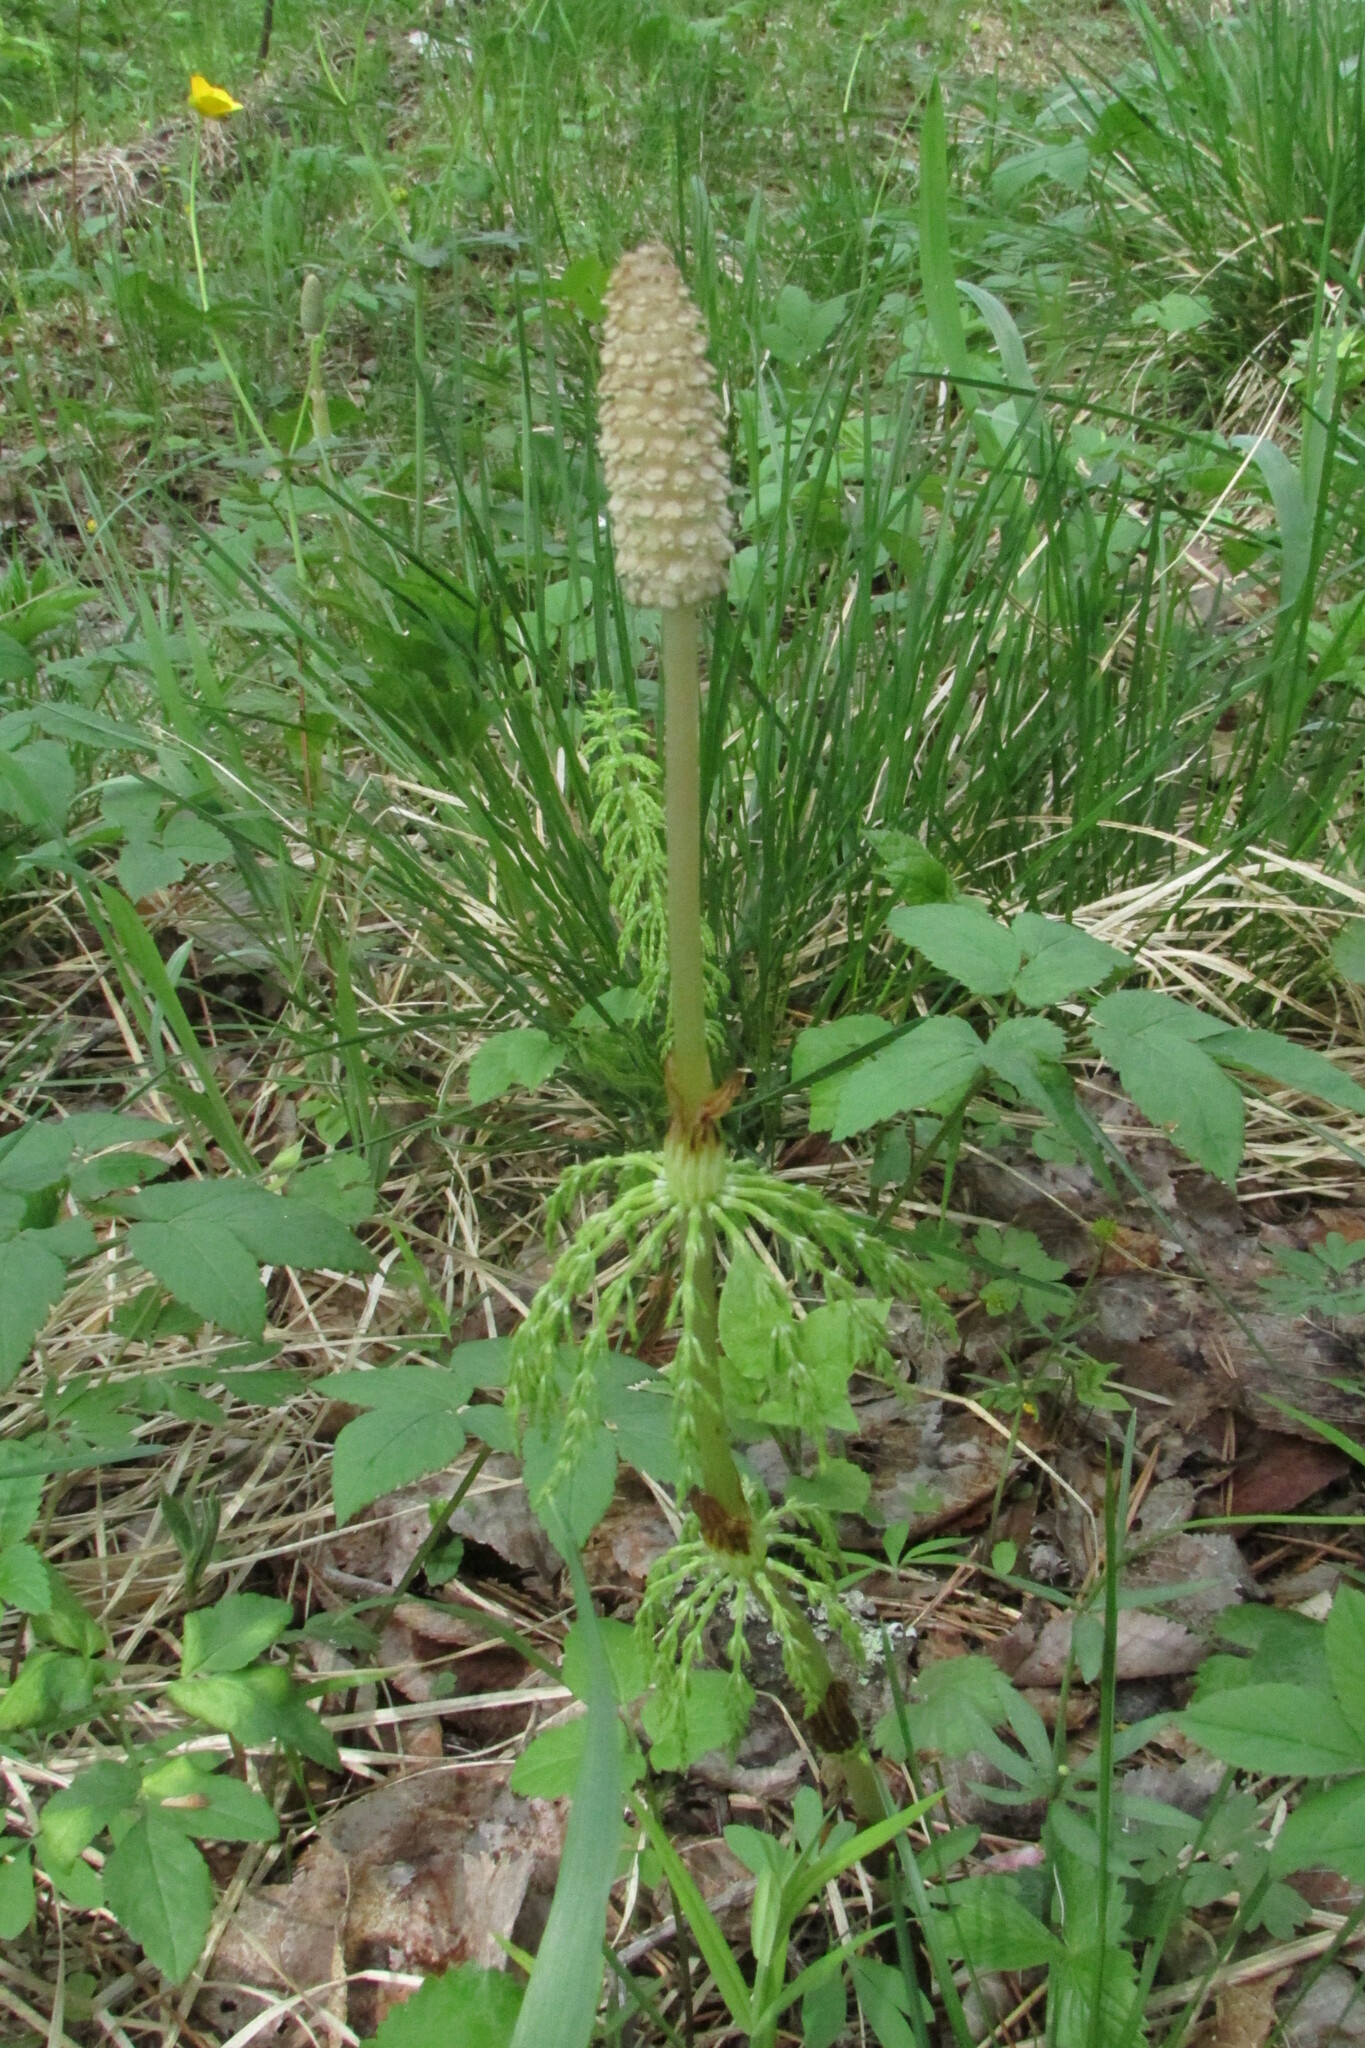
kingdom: Plantae
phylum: Tracheophyta
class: Polypodiopsida
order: Equisetales
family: Equisetaceae
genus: Equisetum
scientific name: Equisetum sylvaticum
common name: Wood horsetail
